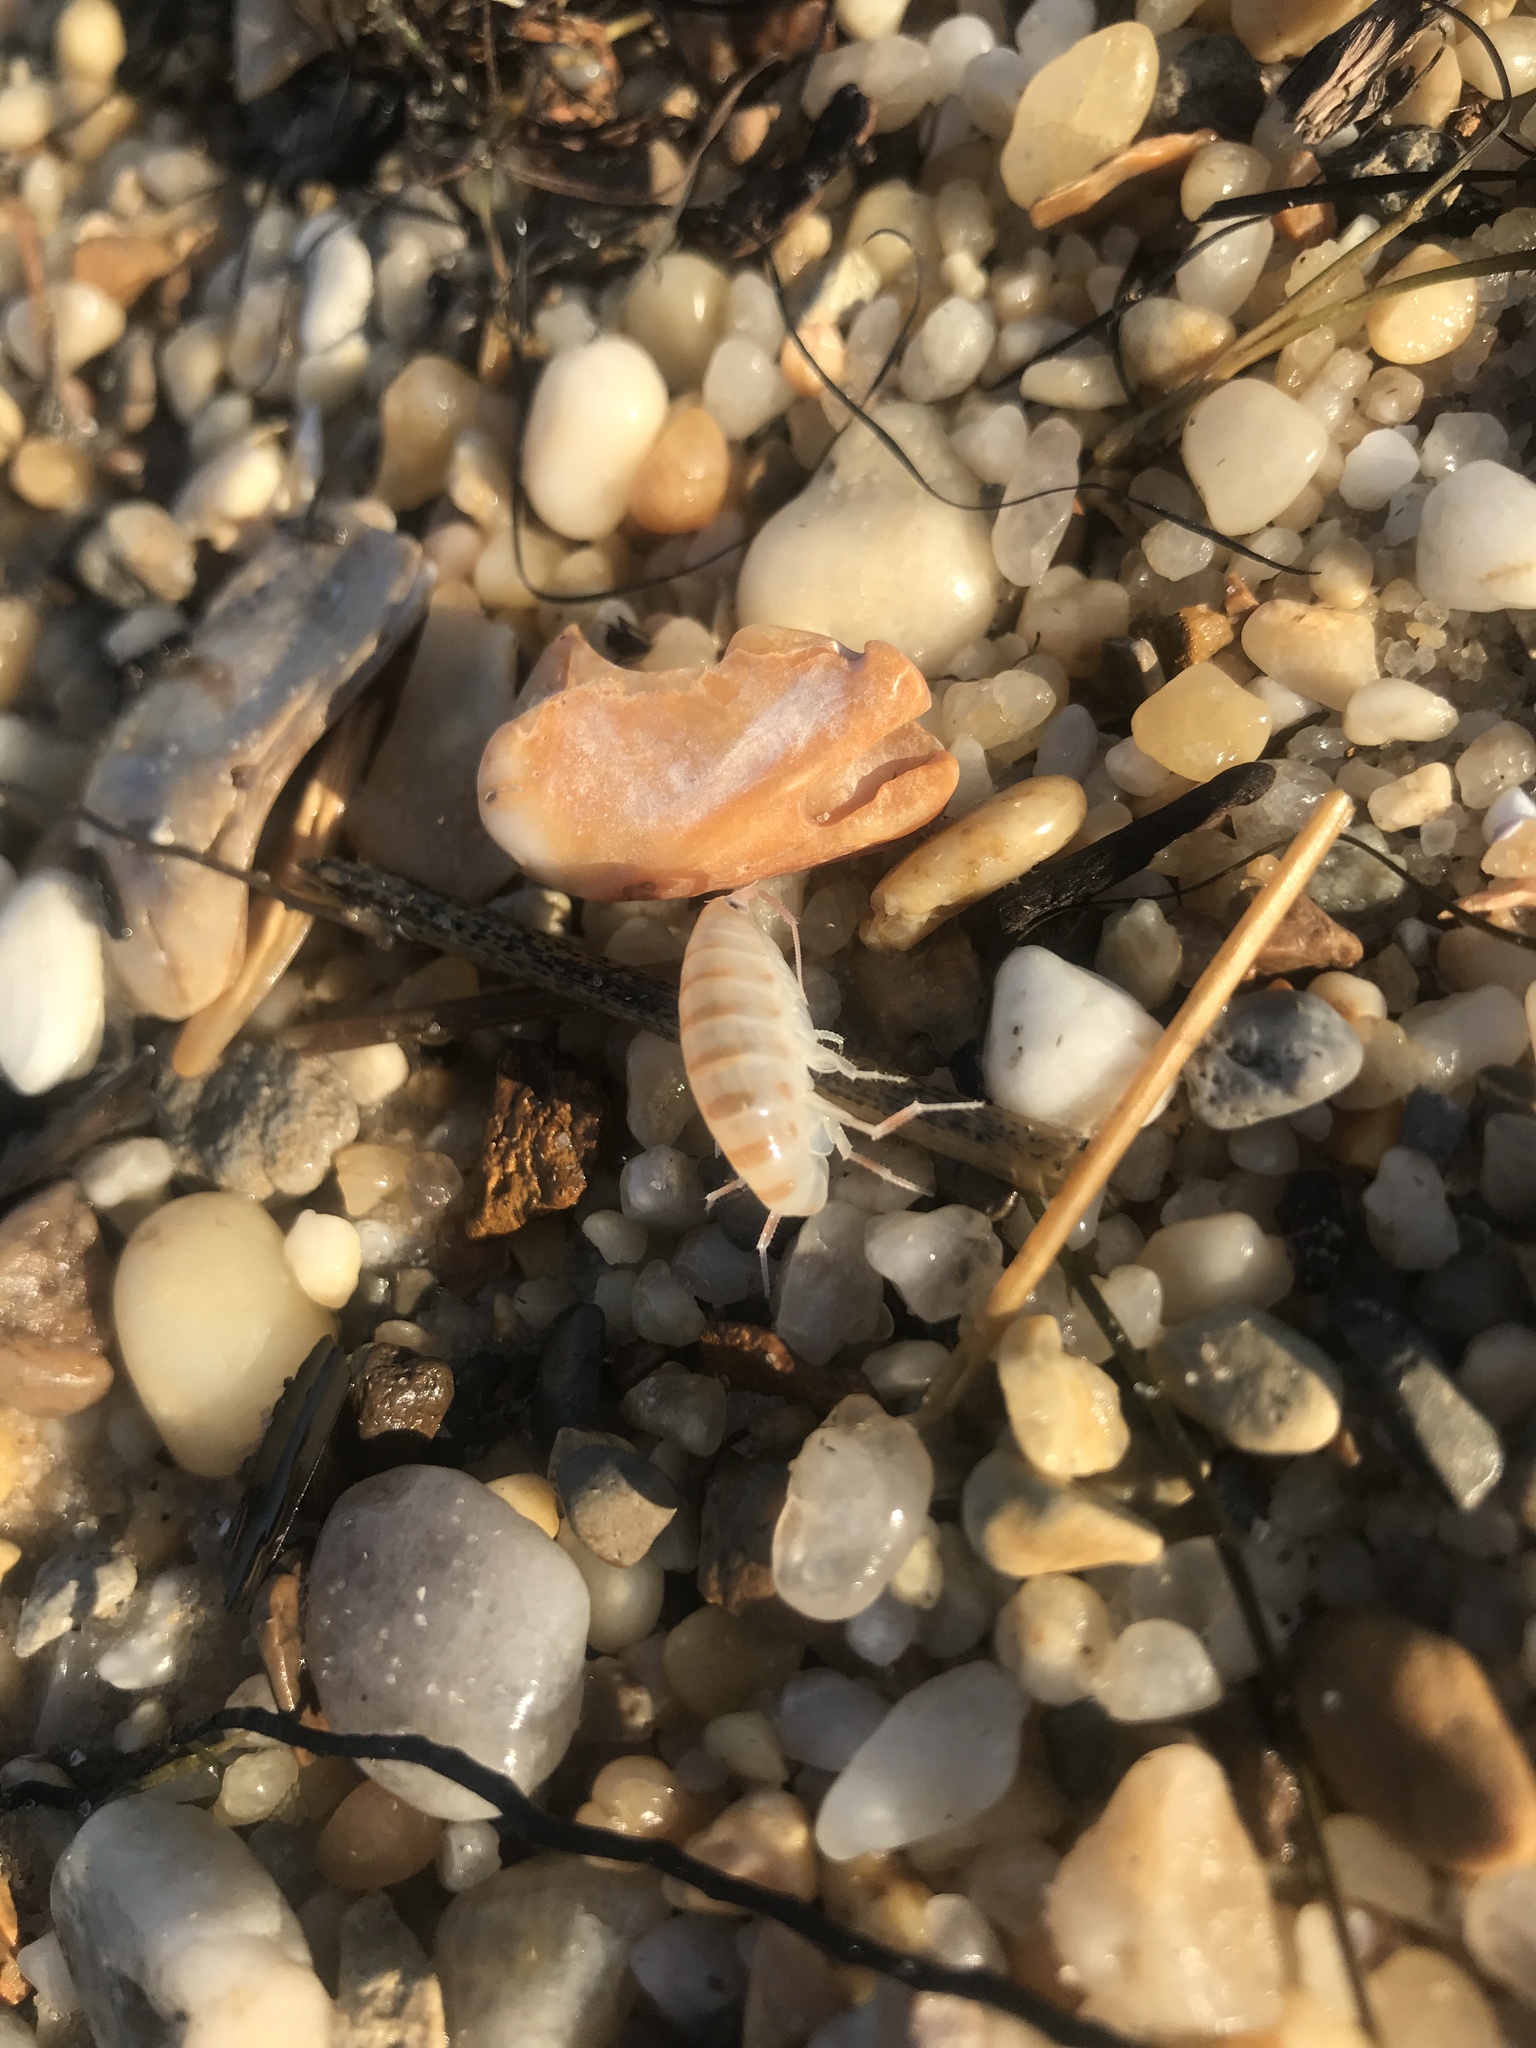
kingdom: Animalia
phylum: Arthropoda
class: Malacostraca
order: Amphipoda
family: Talitridae
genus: Americorchestia
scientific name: Americorchestia megalophthalma
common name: Northern big-eyed sandhopper
